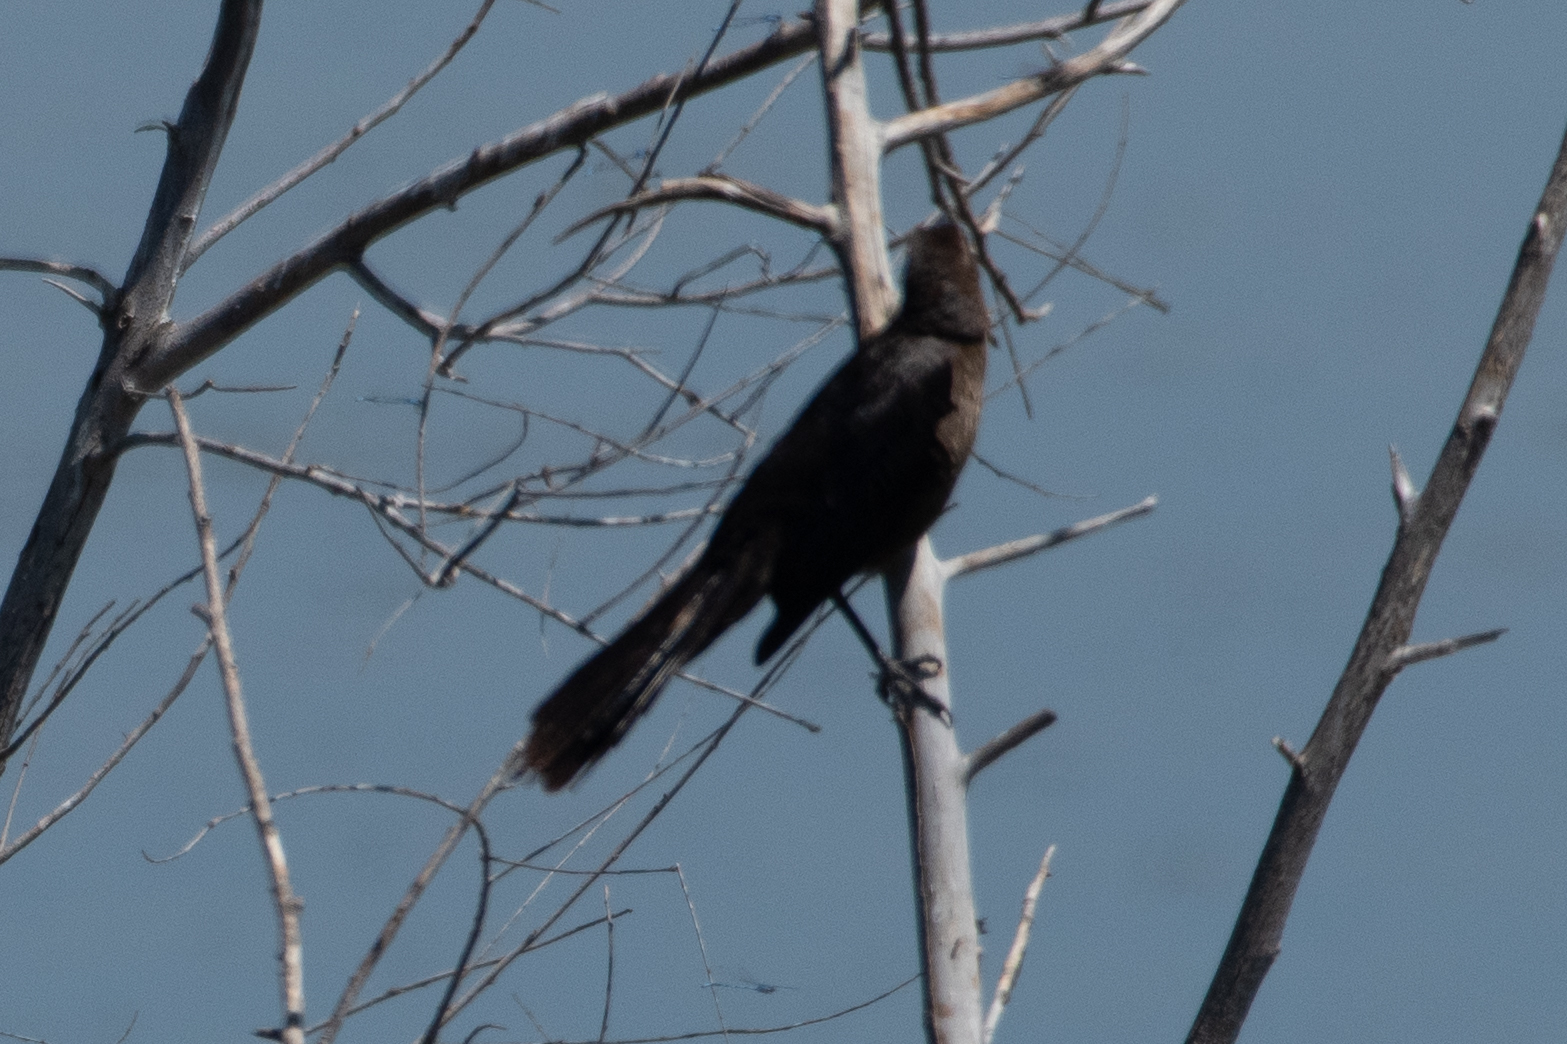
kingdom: Animalia
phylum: Chordata
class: Aves
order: Passeriformes
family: Icteridae
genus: Quiscalus
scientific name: Quiscalus mexicanus
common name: Great-tailed grackle
